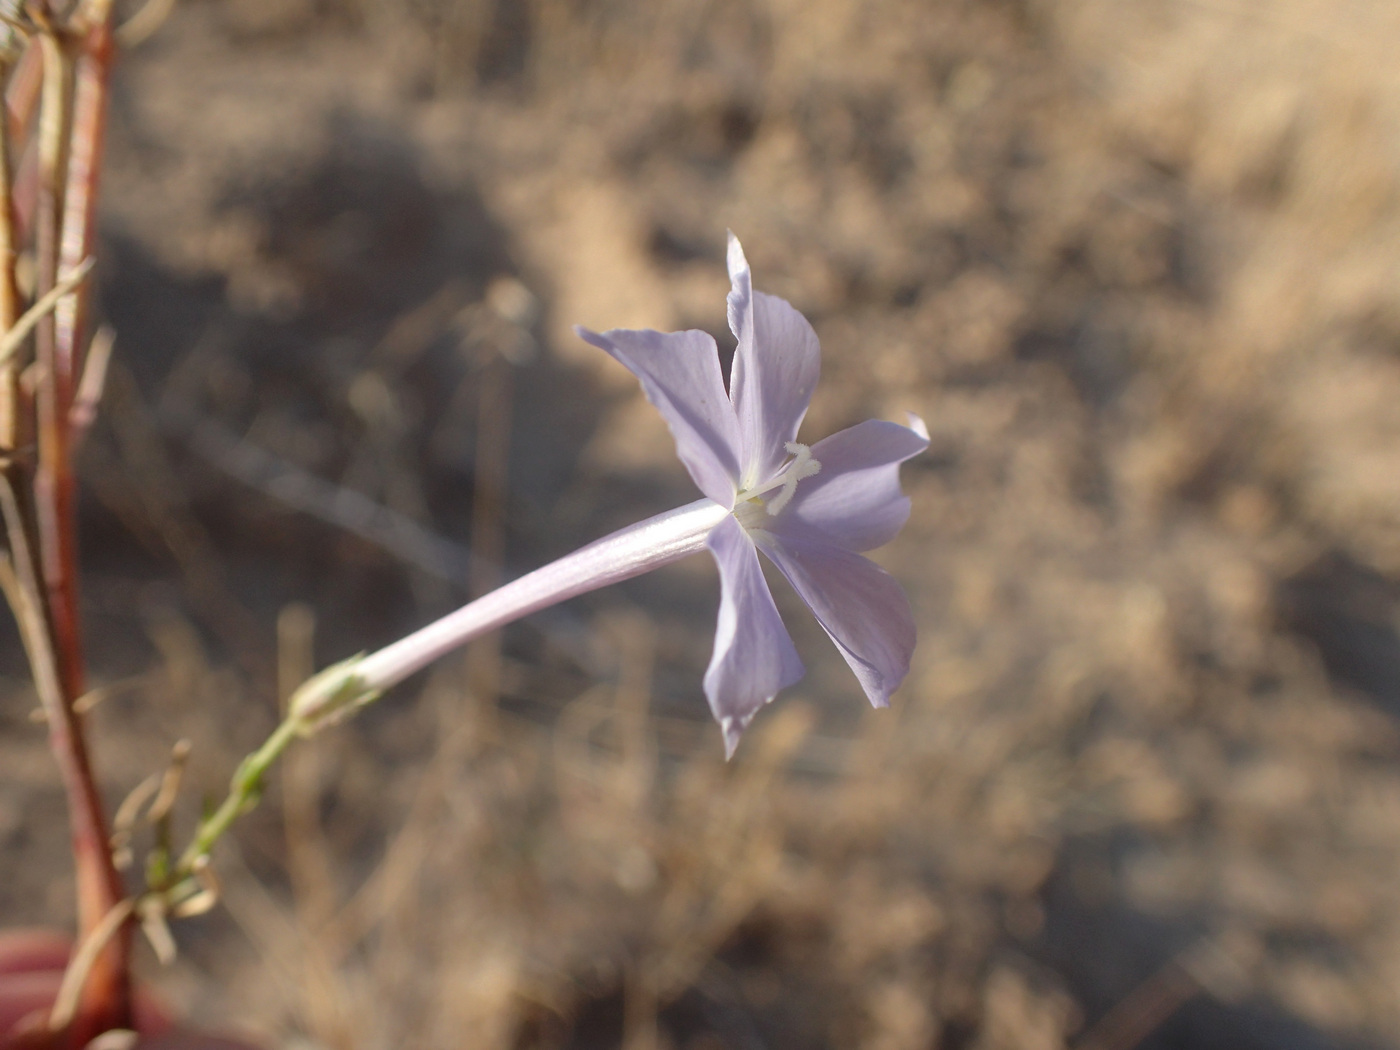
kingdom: Plantae
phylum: Tracheophyta
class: Magnoliopsida
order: Ericales
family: Polemoniaceae
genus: Ipomopsis
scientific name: Ipomopsis longiflora
